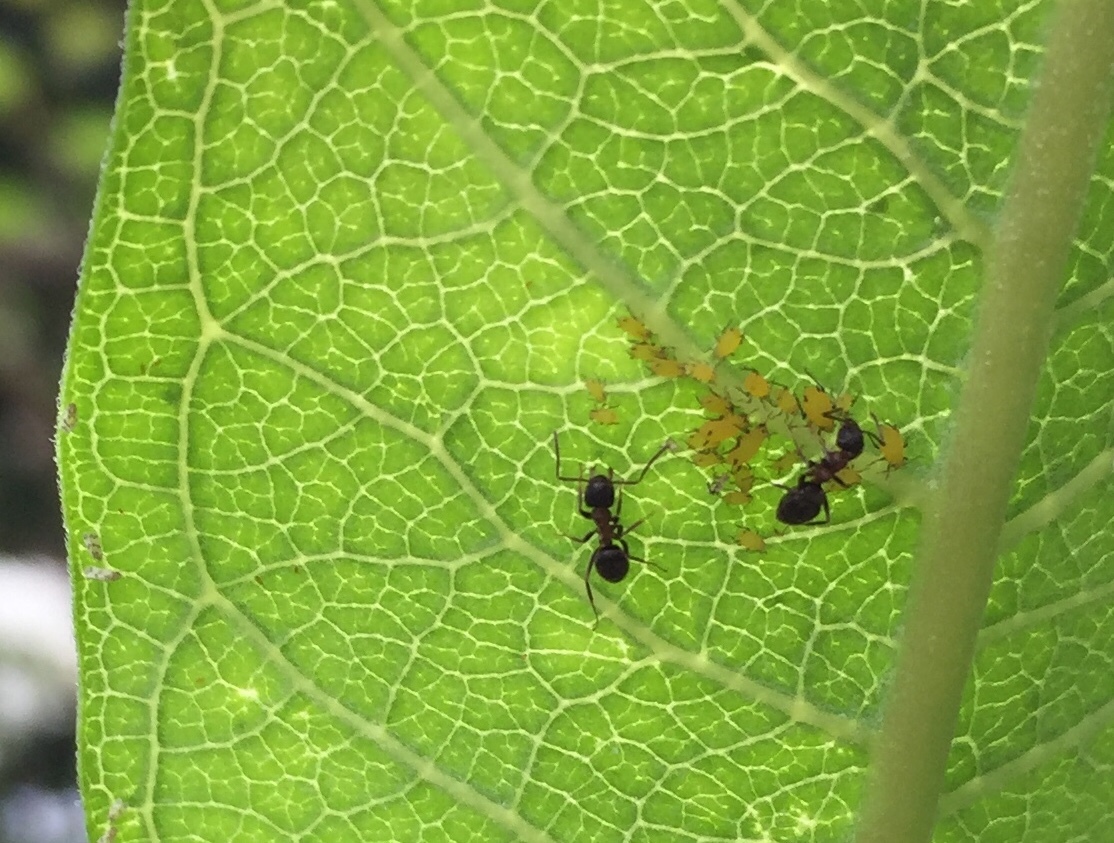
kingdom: Animalia
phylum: Arthropoda
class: Insecta
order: Hemiptera
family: Aphididae
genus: Aphis
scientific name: Aphis nerii
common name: Oleander aphid
